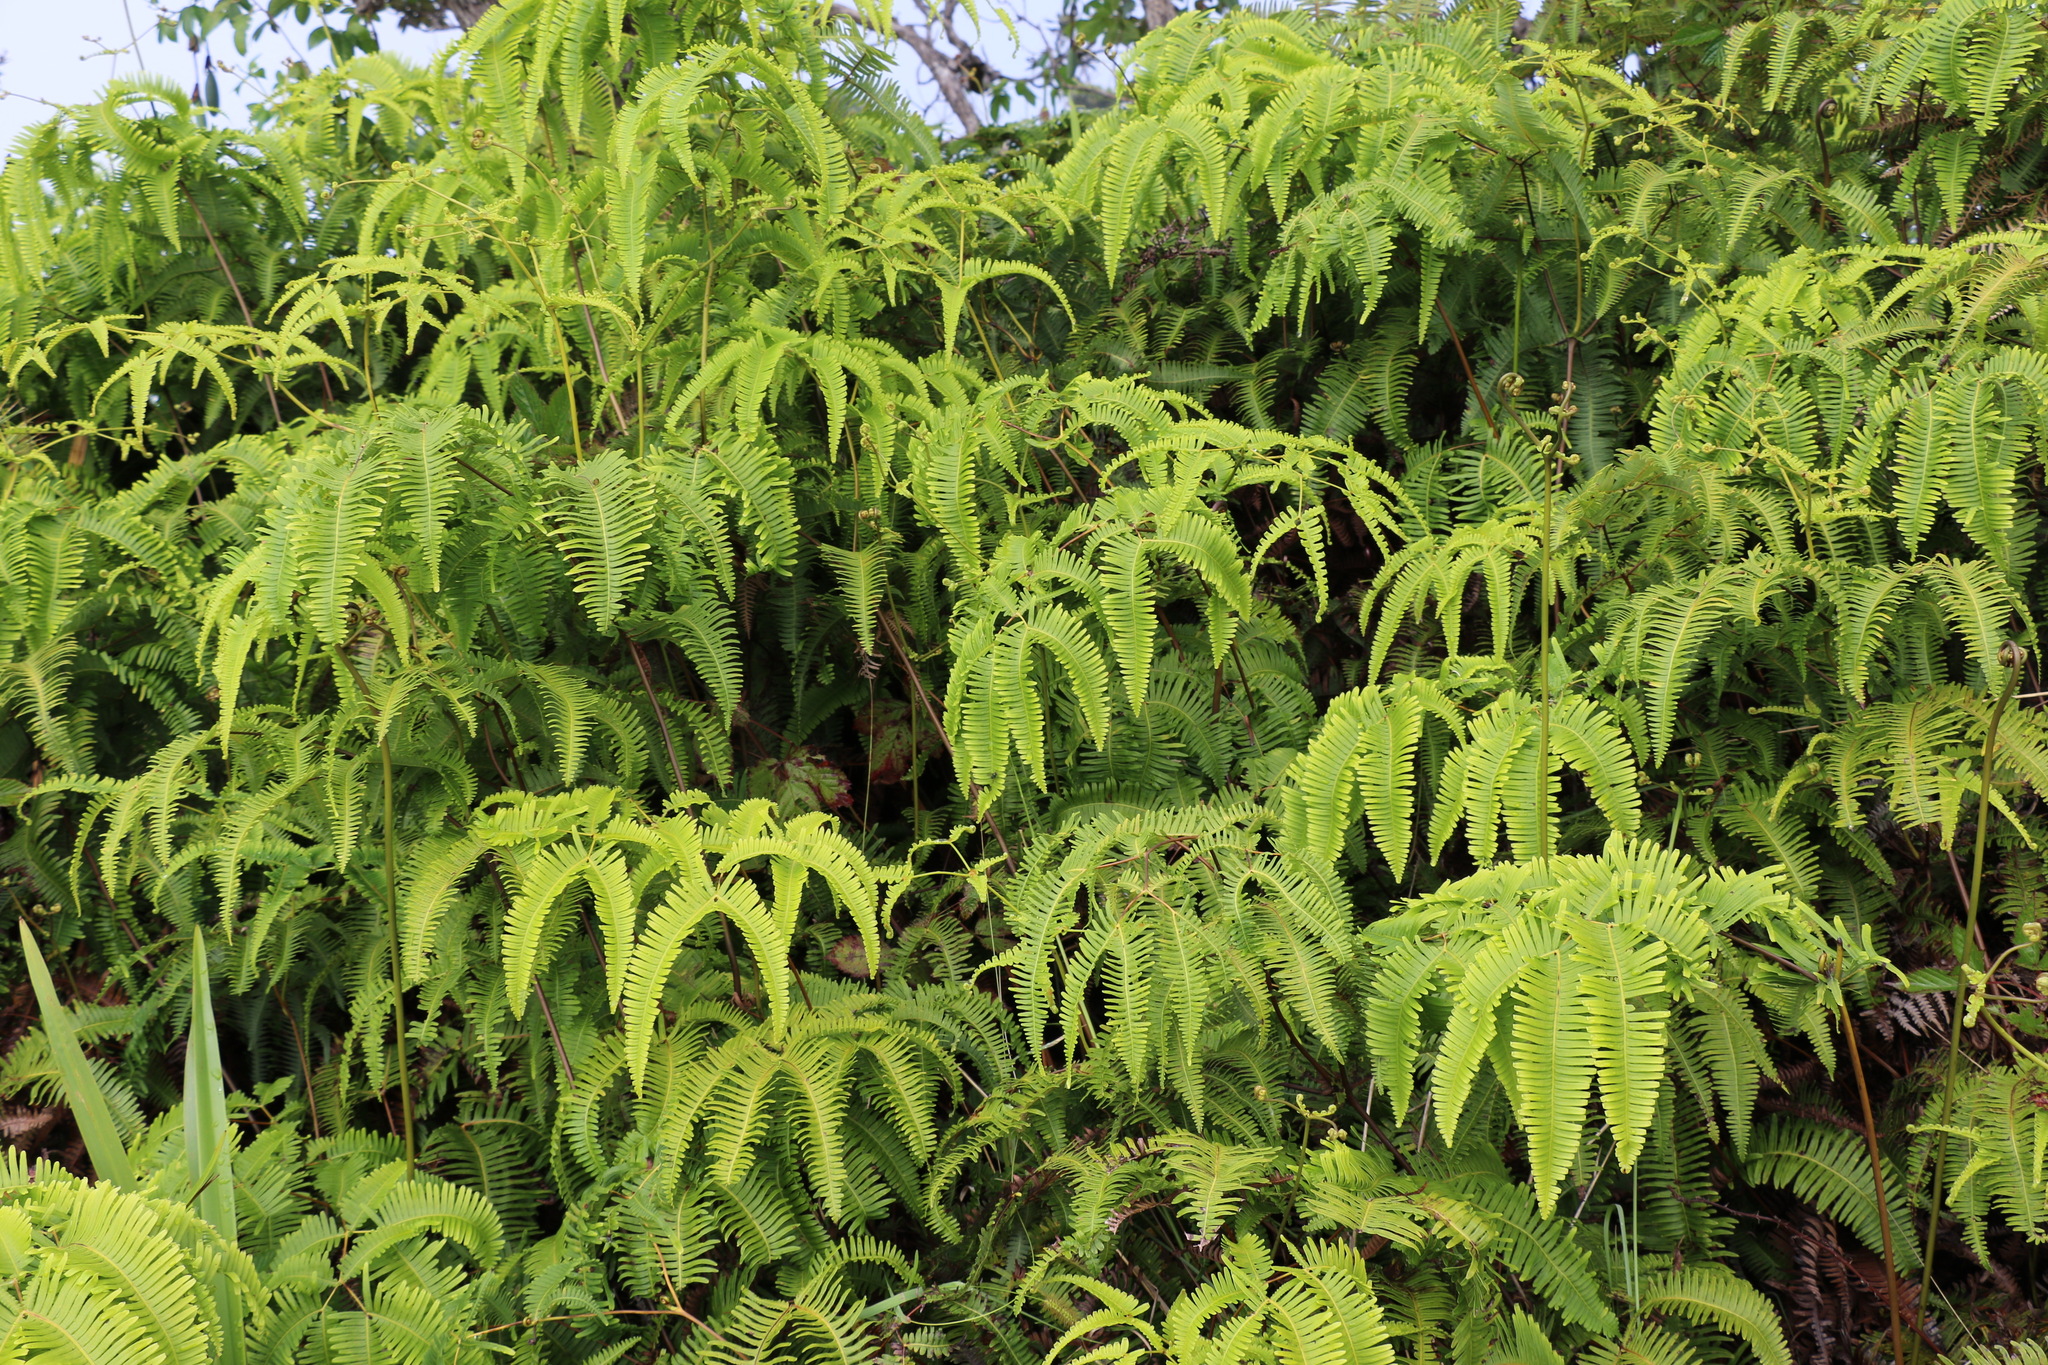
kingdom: Plantae
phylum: Tracheophyta
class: Polypodiopsida
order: Gleicheniales
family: Gleicheniaceae
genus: Dicranopteris
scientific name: Dicranopteris linearis
